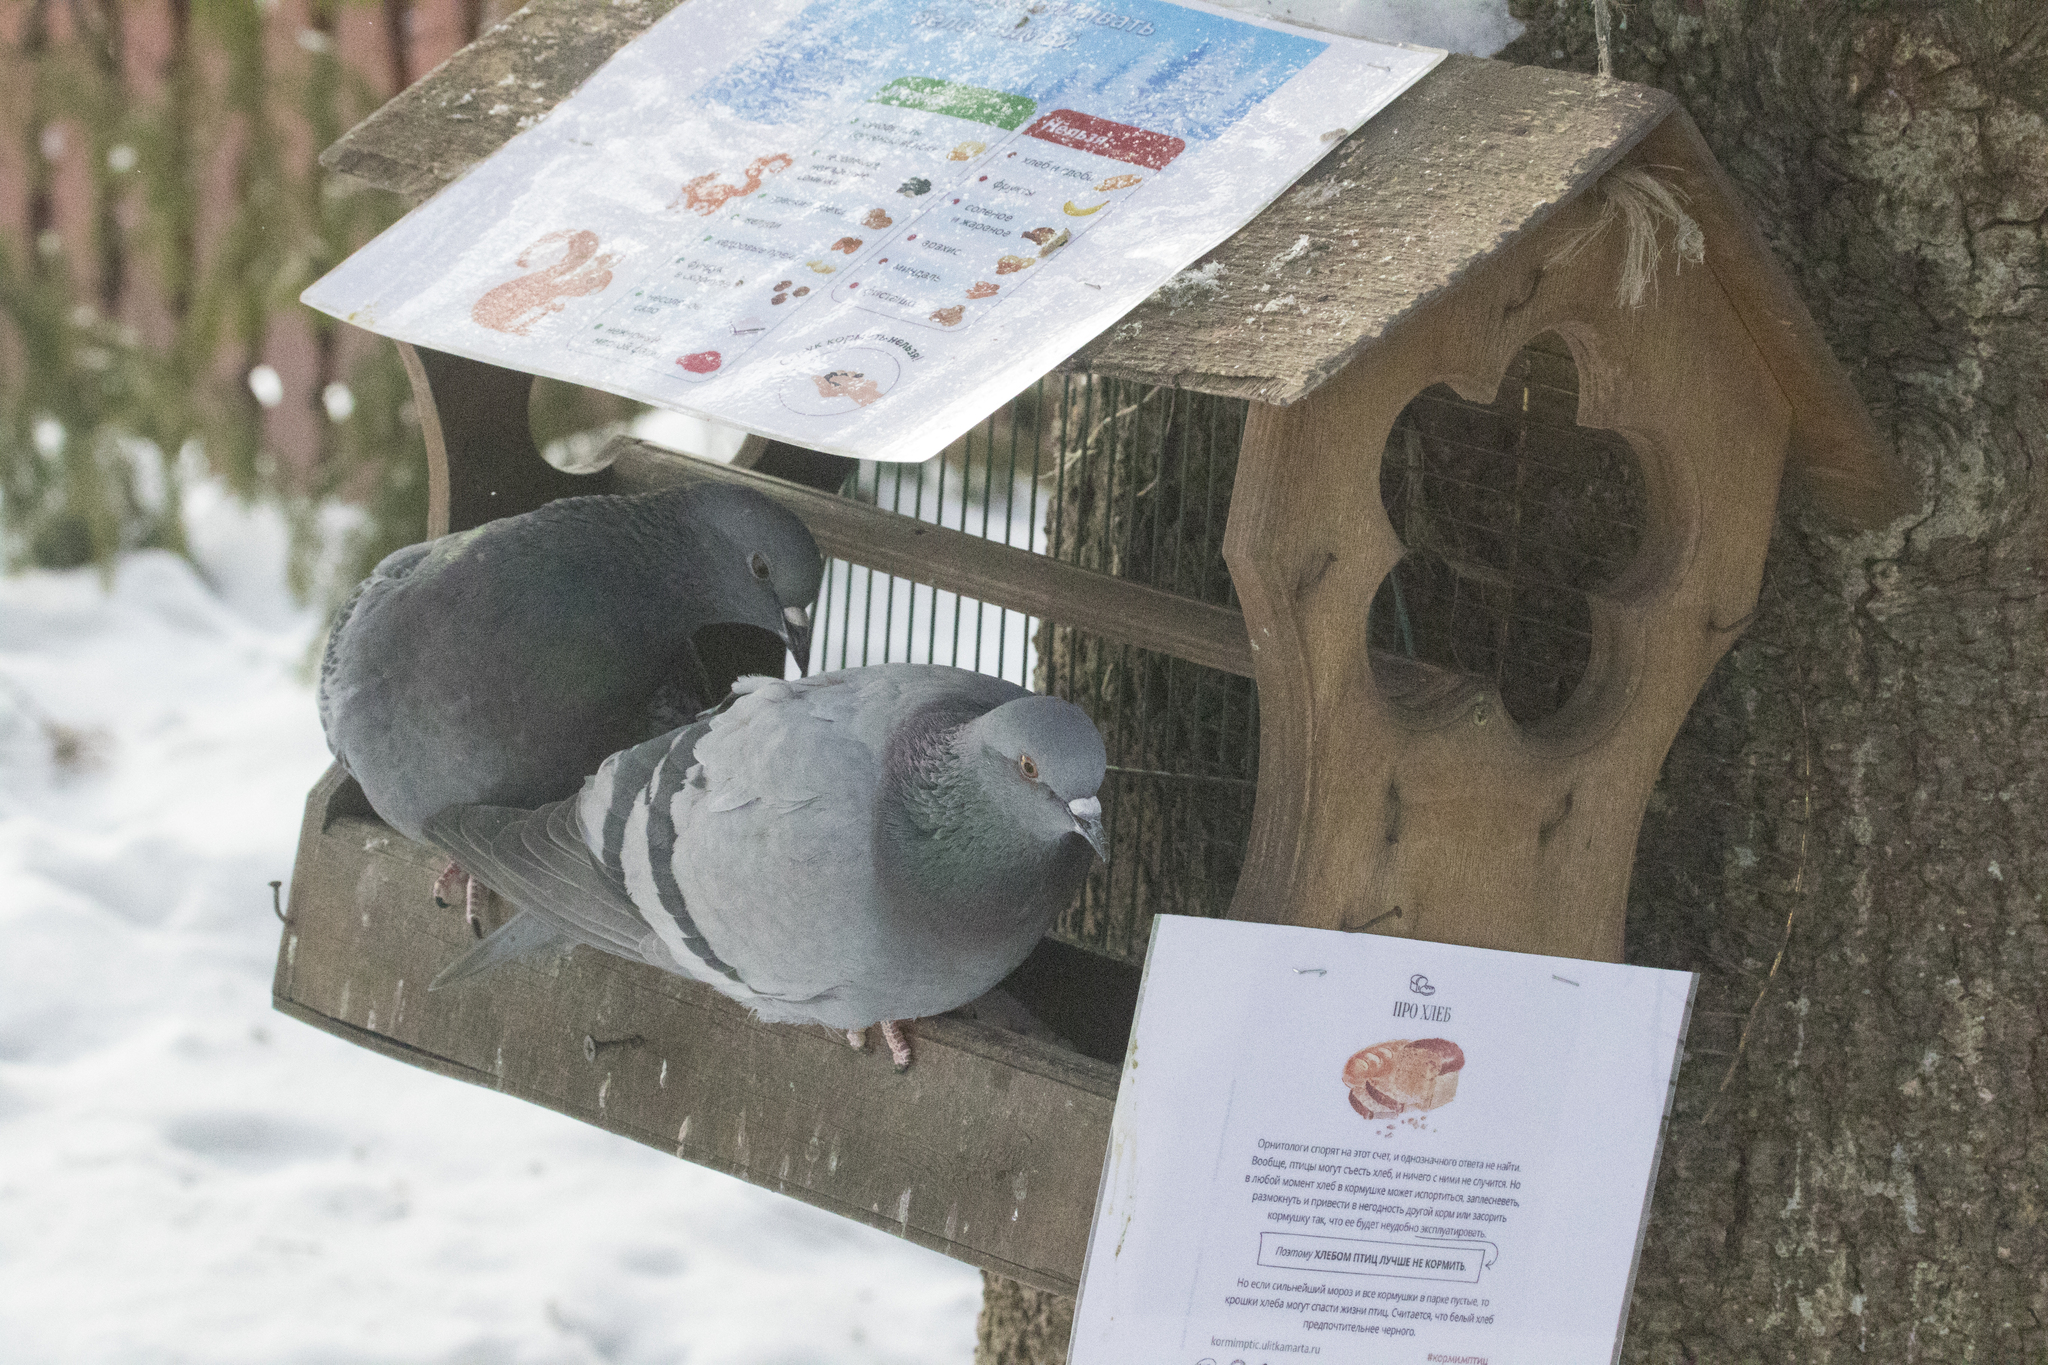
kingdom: Animalia
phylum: Chordata
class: Aves
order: Columbiformes
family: Columbidae
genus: Columba
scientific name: Columba livia
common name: Rock pigeon
